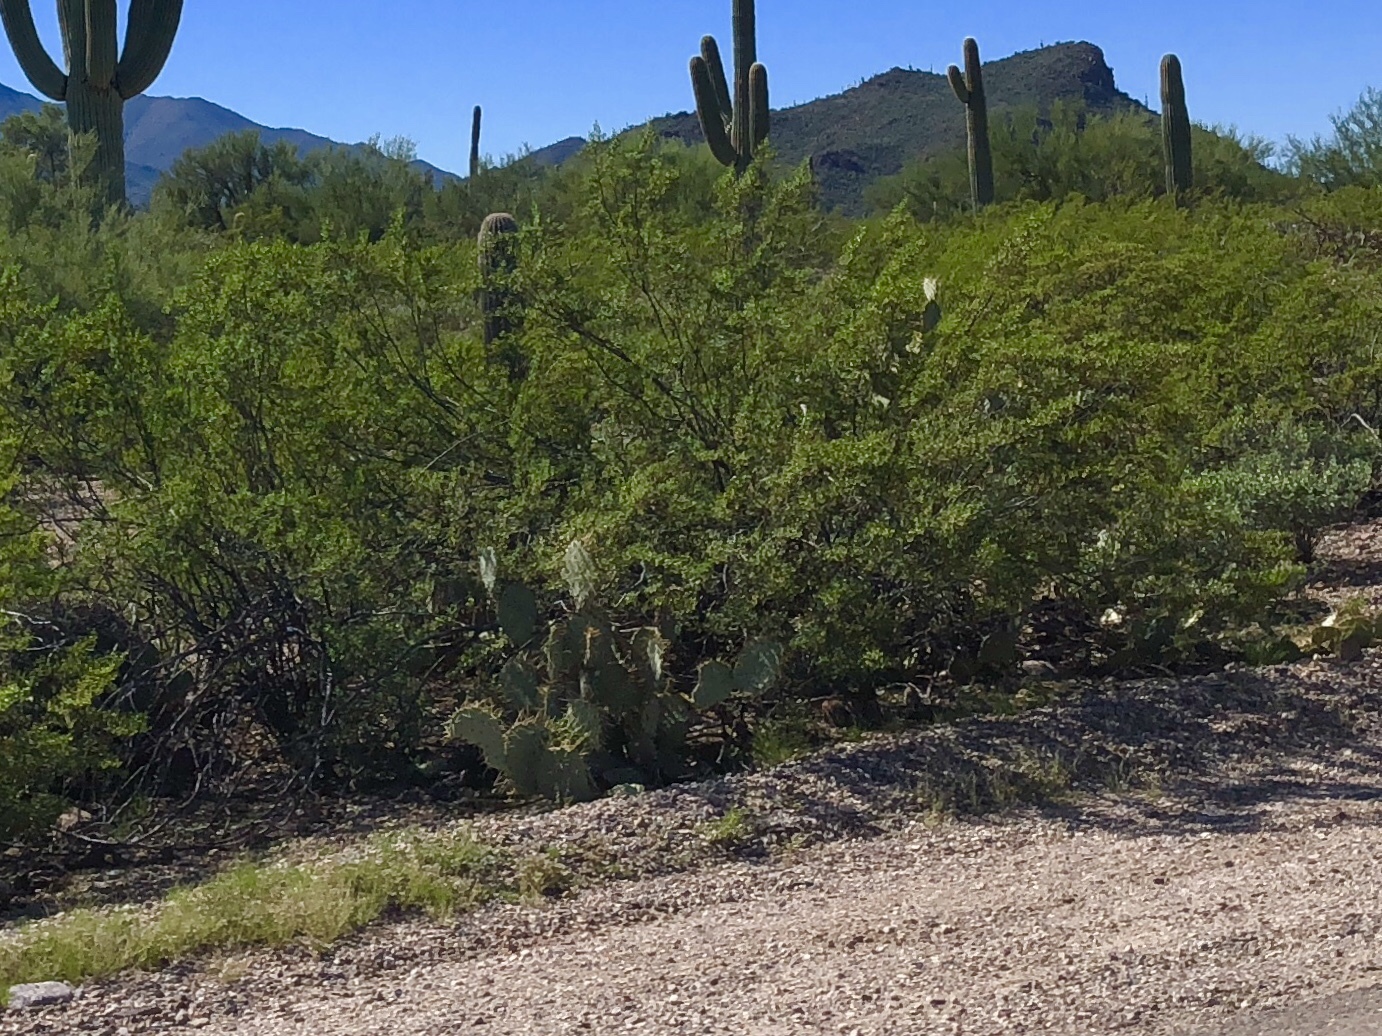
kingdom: Plantae
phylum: Tracheophyta
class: Magnoliopsida
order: Zygophyllales
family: Zygophyllaceae
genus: Larrea
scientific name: Larrea tridentata
